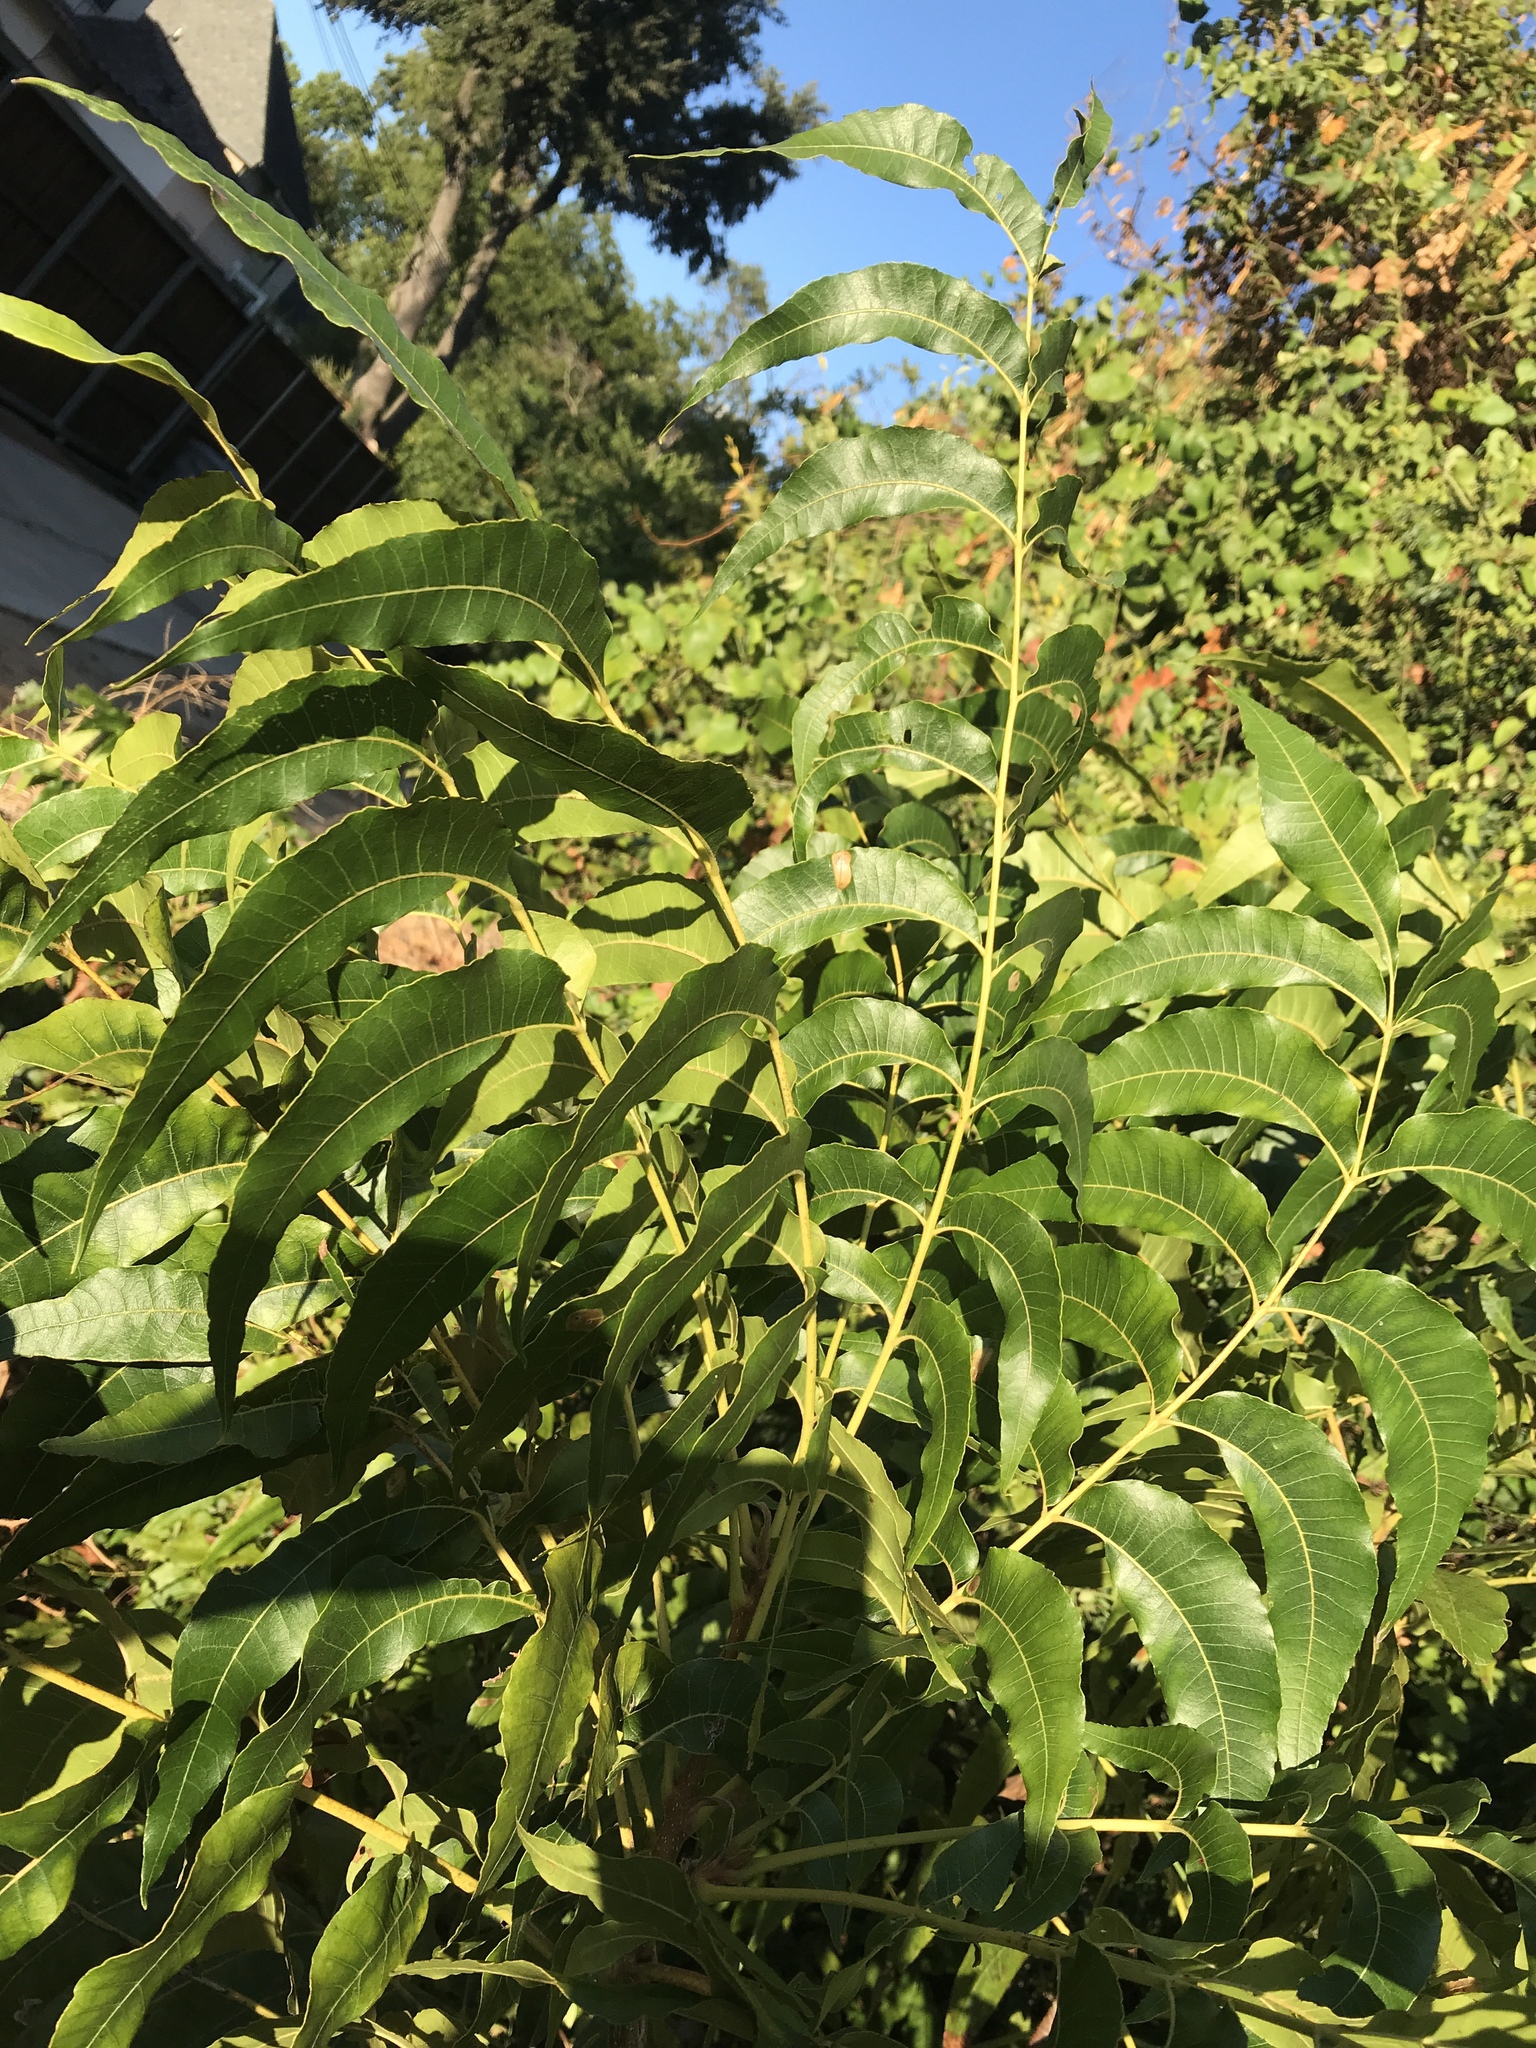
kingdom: Plantae
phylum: Tracheophyta
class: Magnoliopsida
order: Fagales
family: Juglandaceae
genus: Carya
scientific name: Carya illinoinensis
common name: Pecan
